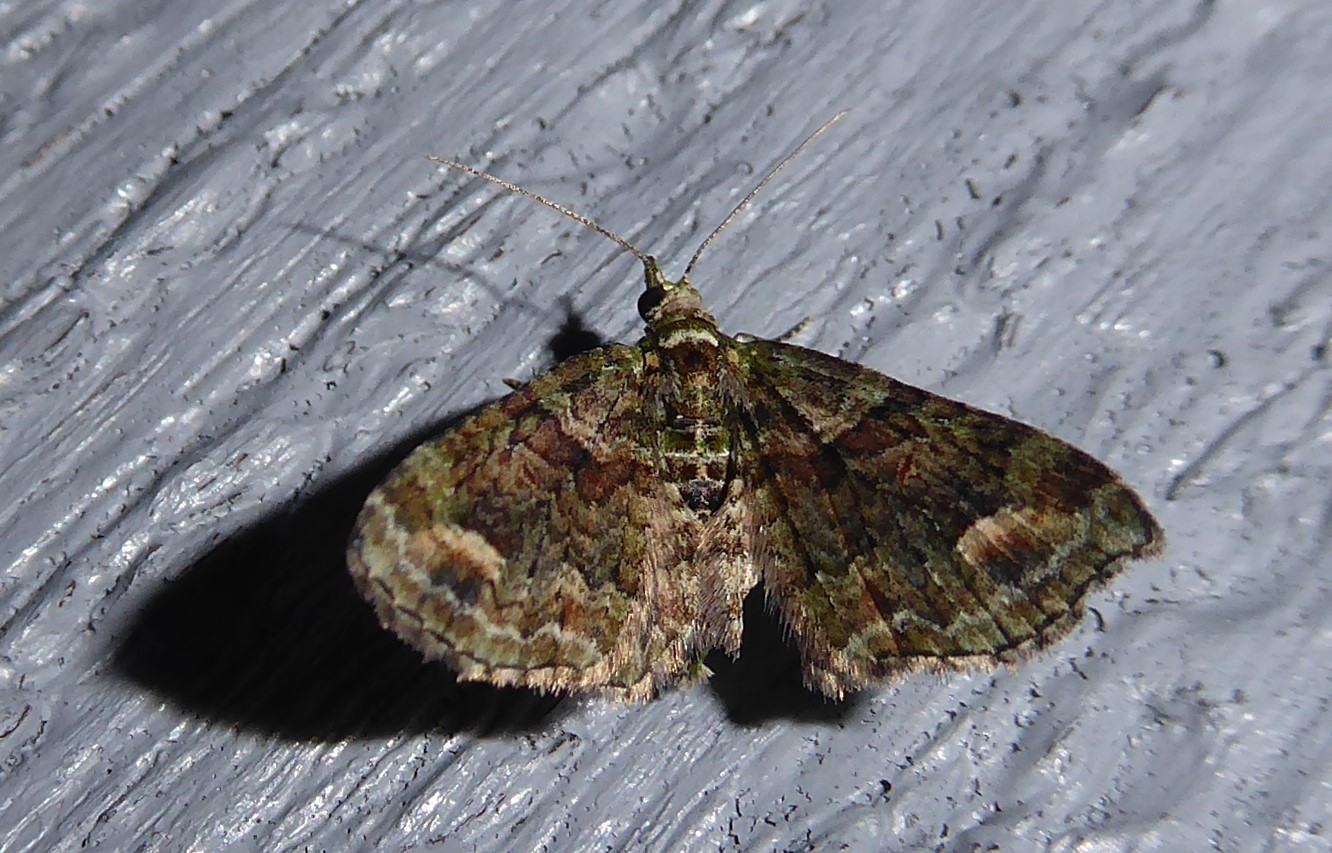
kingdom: Animalia
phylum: Arthropoda
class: Insecta
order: Lepidoptera
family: Geometridae
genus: Idaea
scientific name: Idaea mutanda
